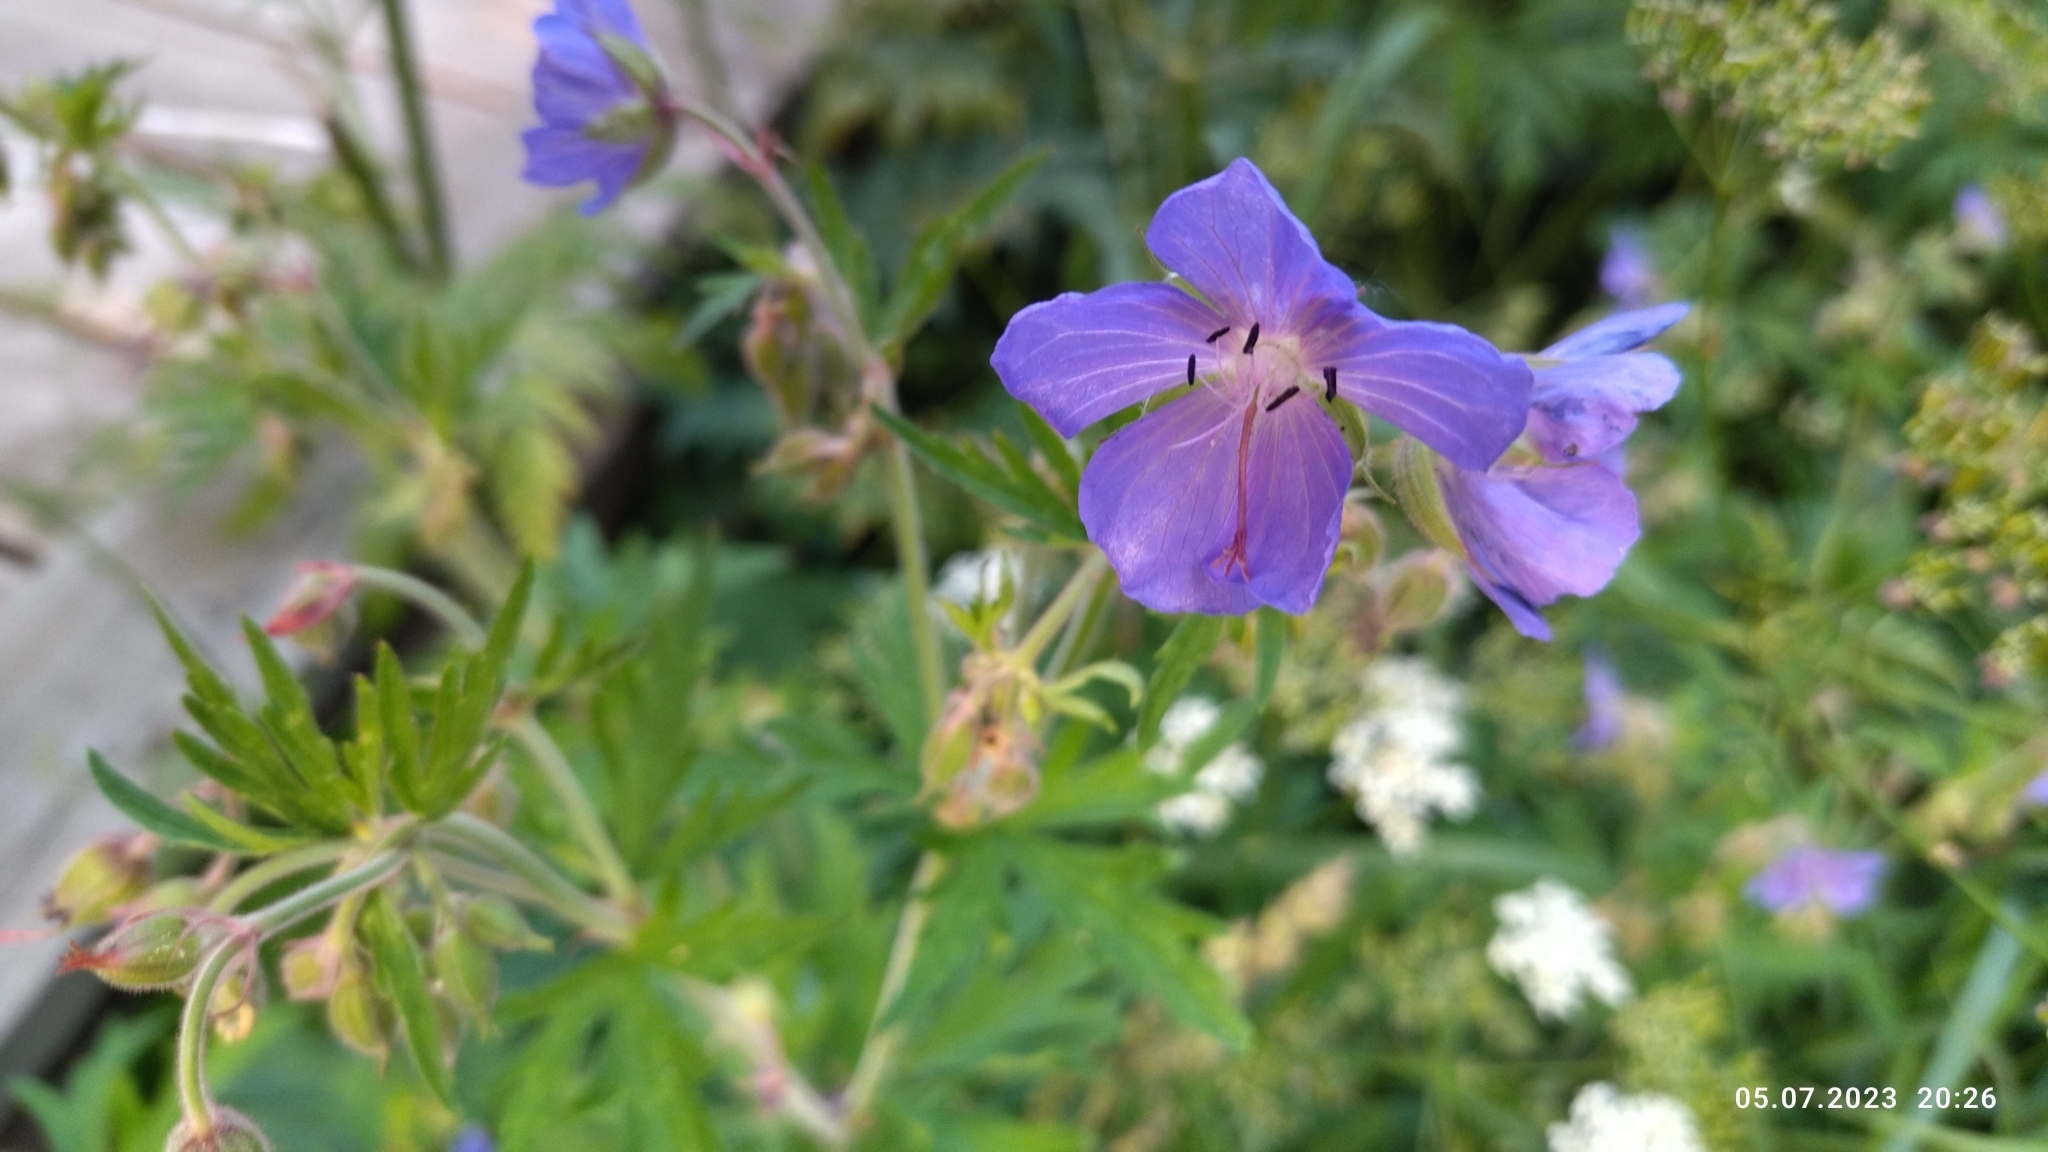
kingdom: Plantae
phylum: Tracheophyta
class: Magnoliopsida
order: Geraniales
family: Geraniaceae
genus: Geranium
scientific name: Geranium pratense
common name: Meadow crane's-bill
